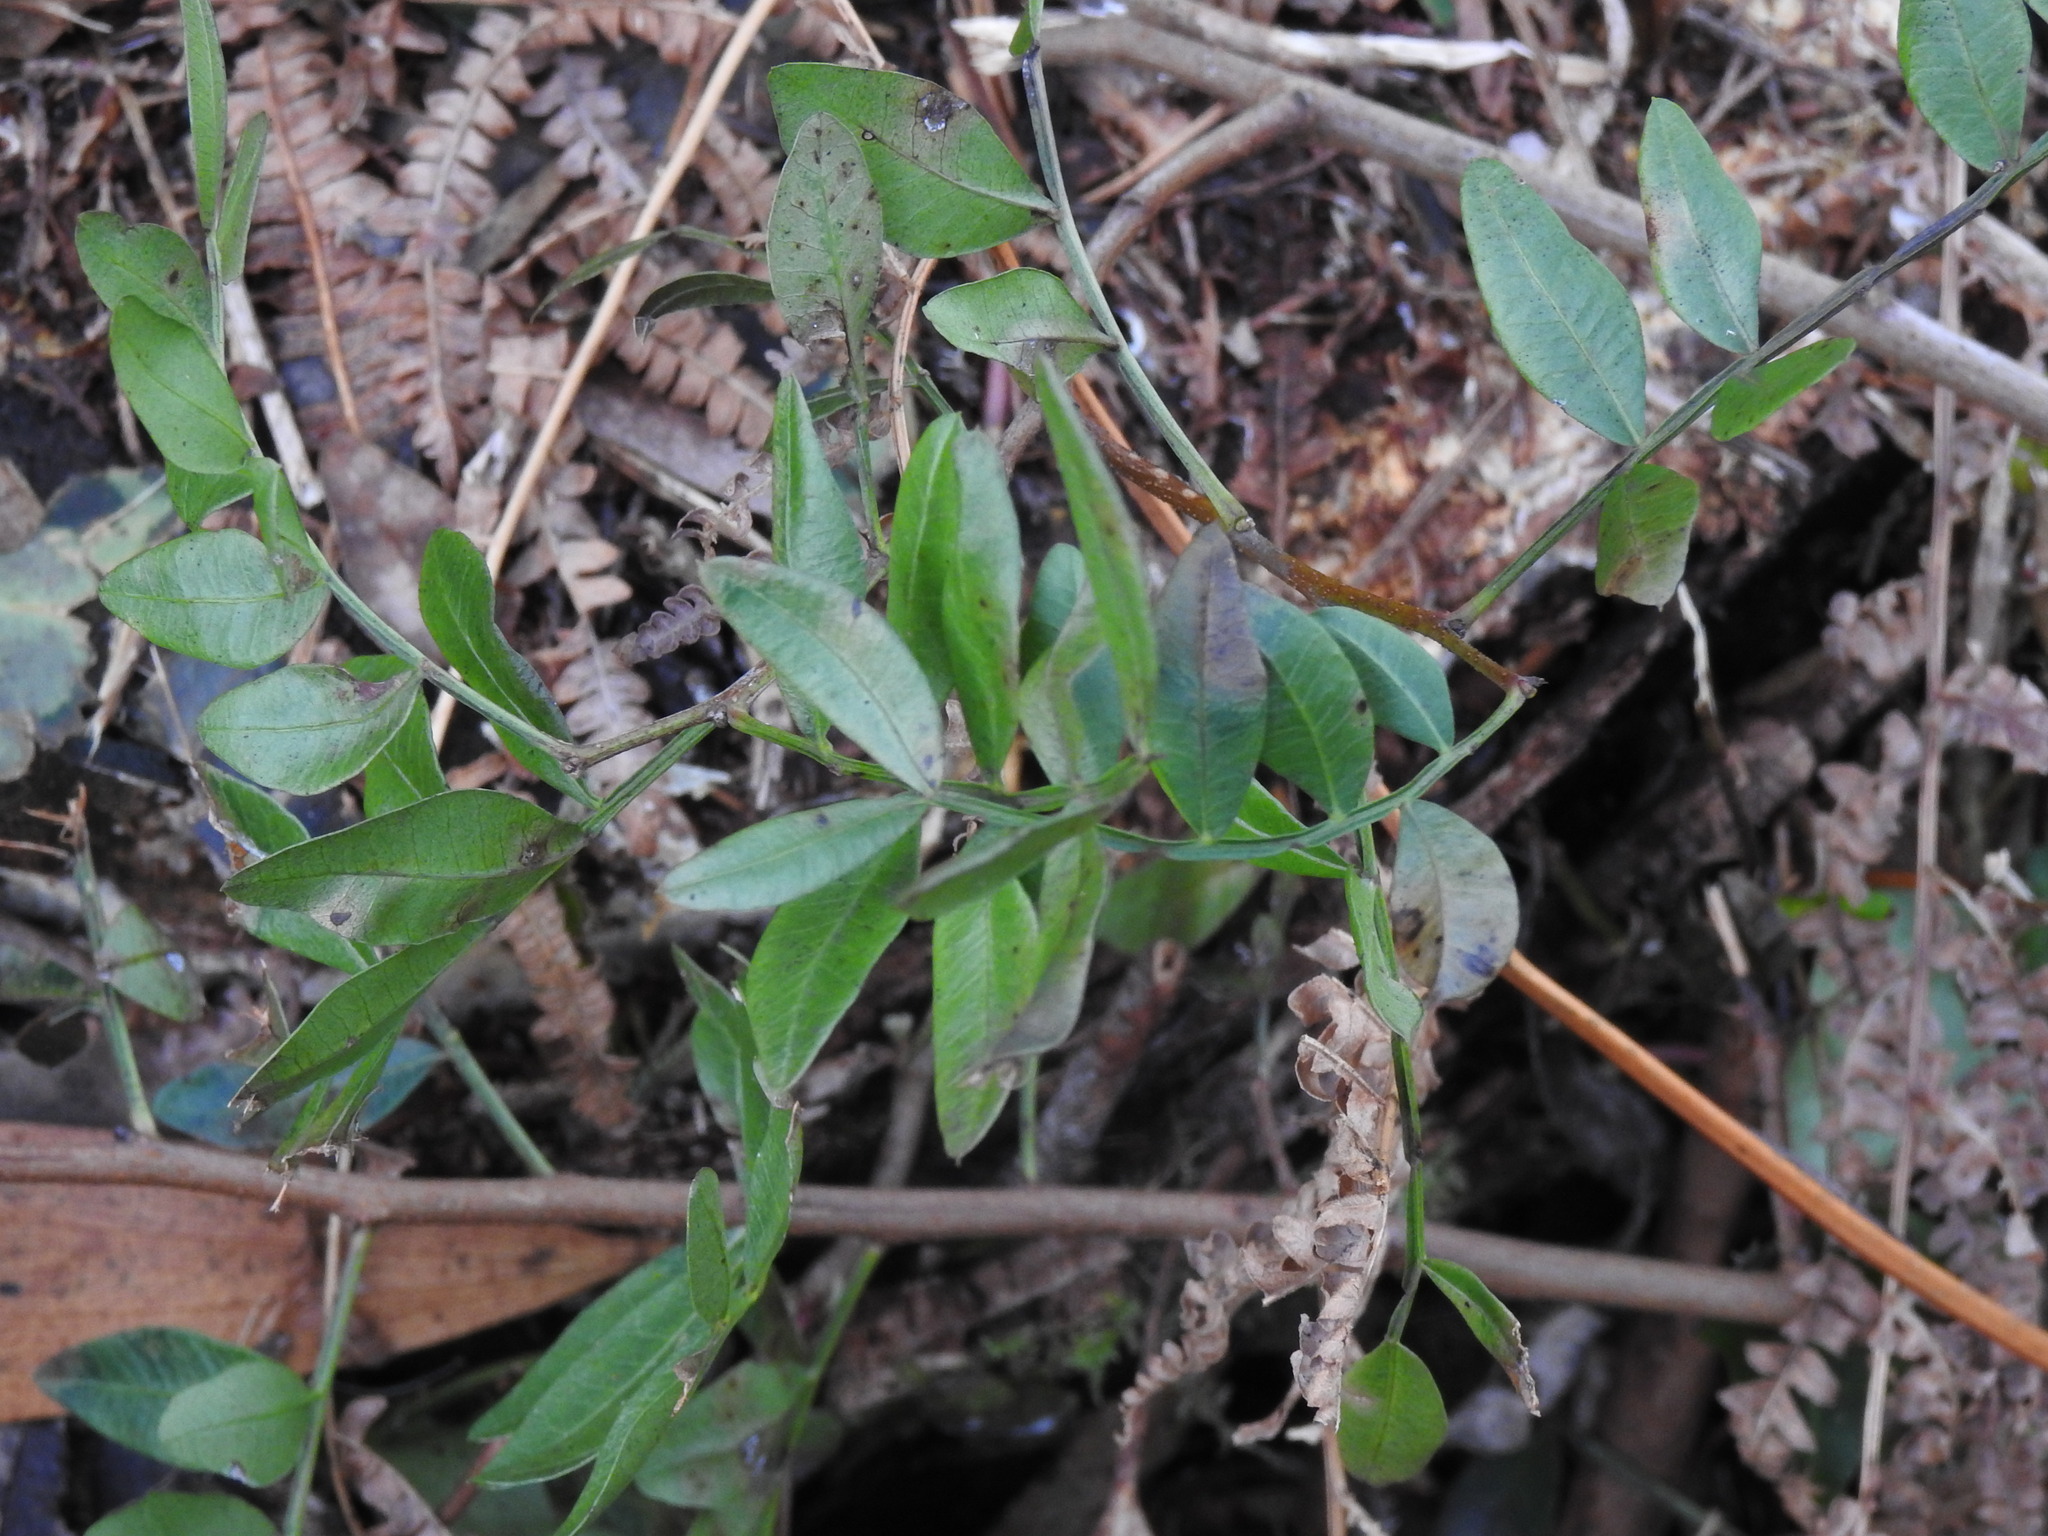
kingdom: Plantae
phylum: Tracheophyta
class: Magnoliopsida
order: Sapindales
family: Anacardiaceae
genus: Pistacia
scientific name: Pistacia lentiscus
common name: Lentisk
